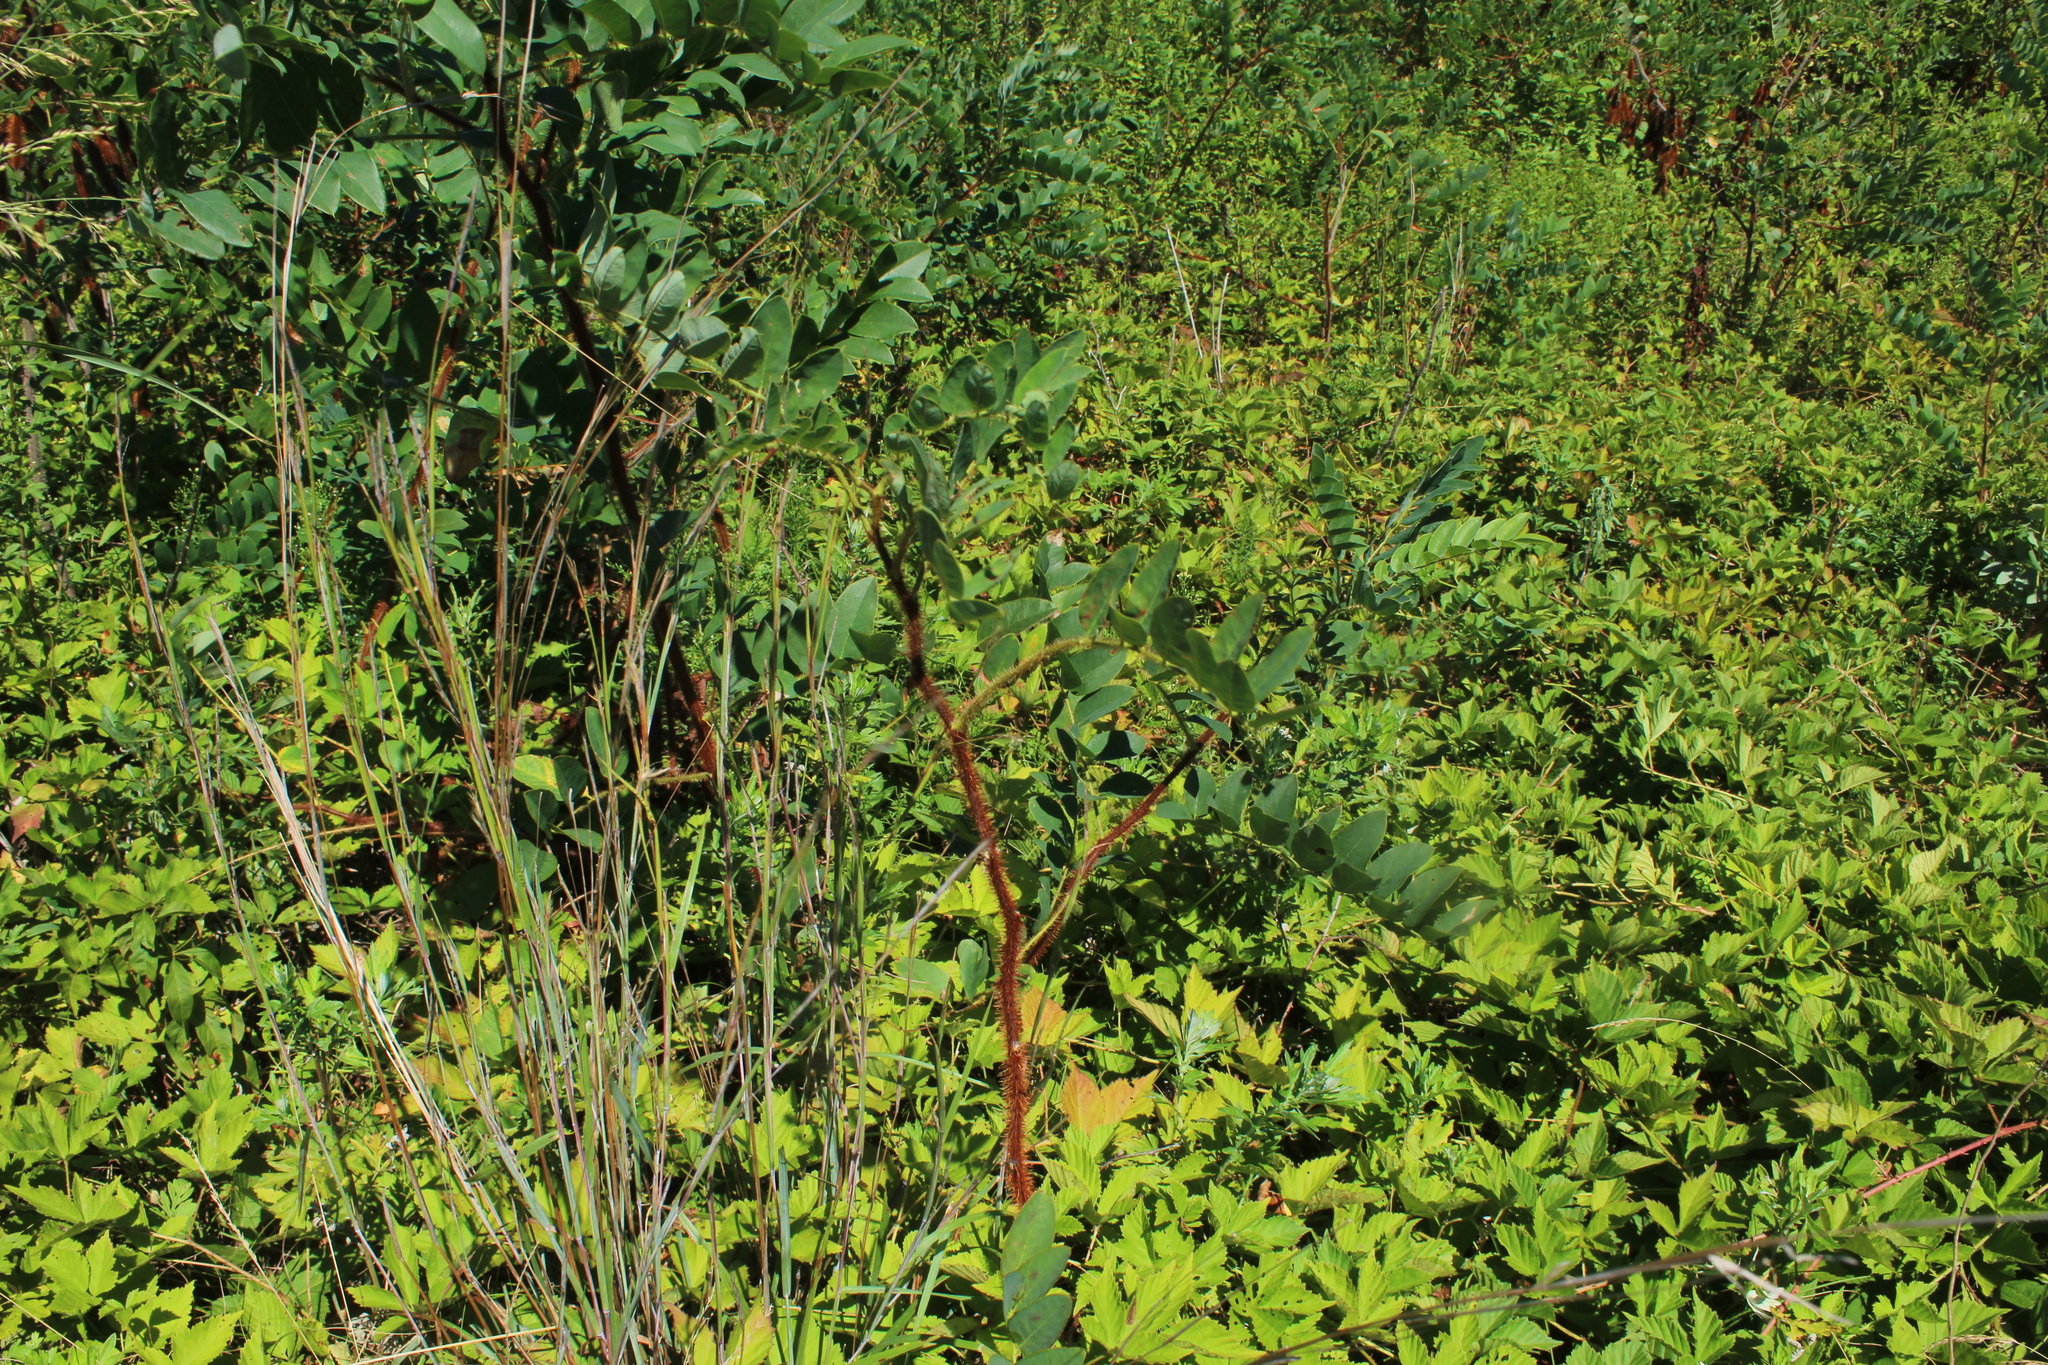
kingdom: Plantae
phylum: Tracheophyta
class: Magnoliopsida
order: Fabales
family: Fabaceae
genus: Robinia
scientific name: Robinia hispida
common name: Bristly locust
